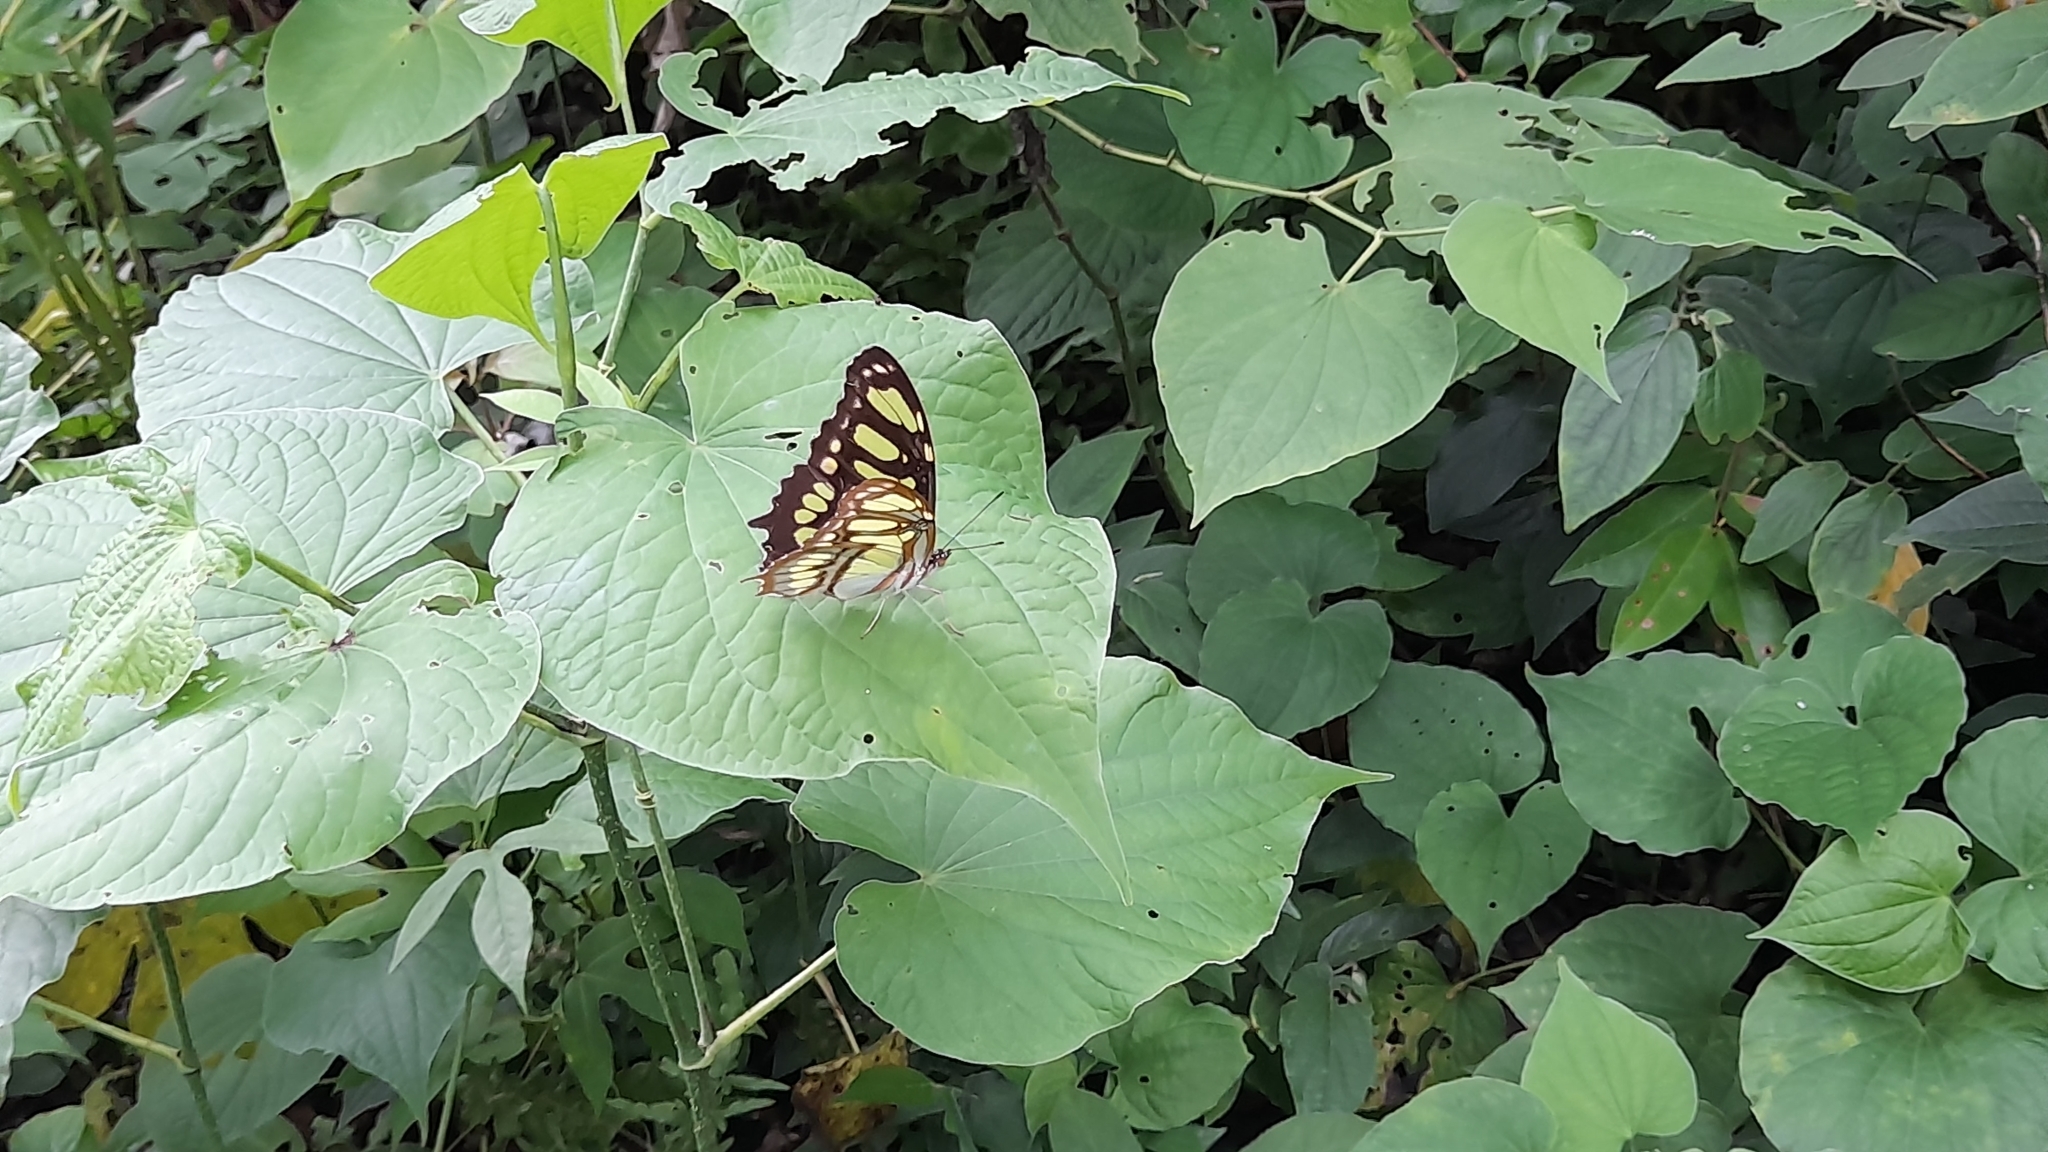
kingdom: Animalia
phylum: Arthropoda
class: Insecta
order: Lepidoptera
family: Nymphalidae
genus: Siproeta
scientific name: Siproeta stelenes
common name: Malachite
